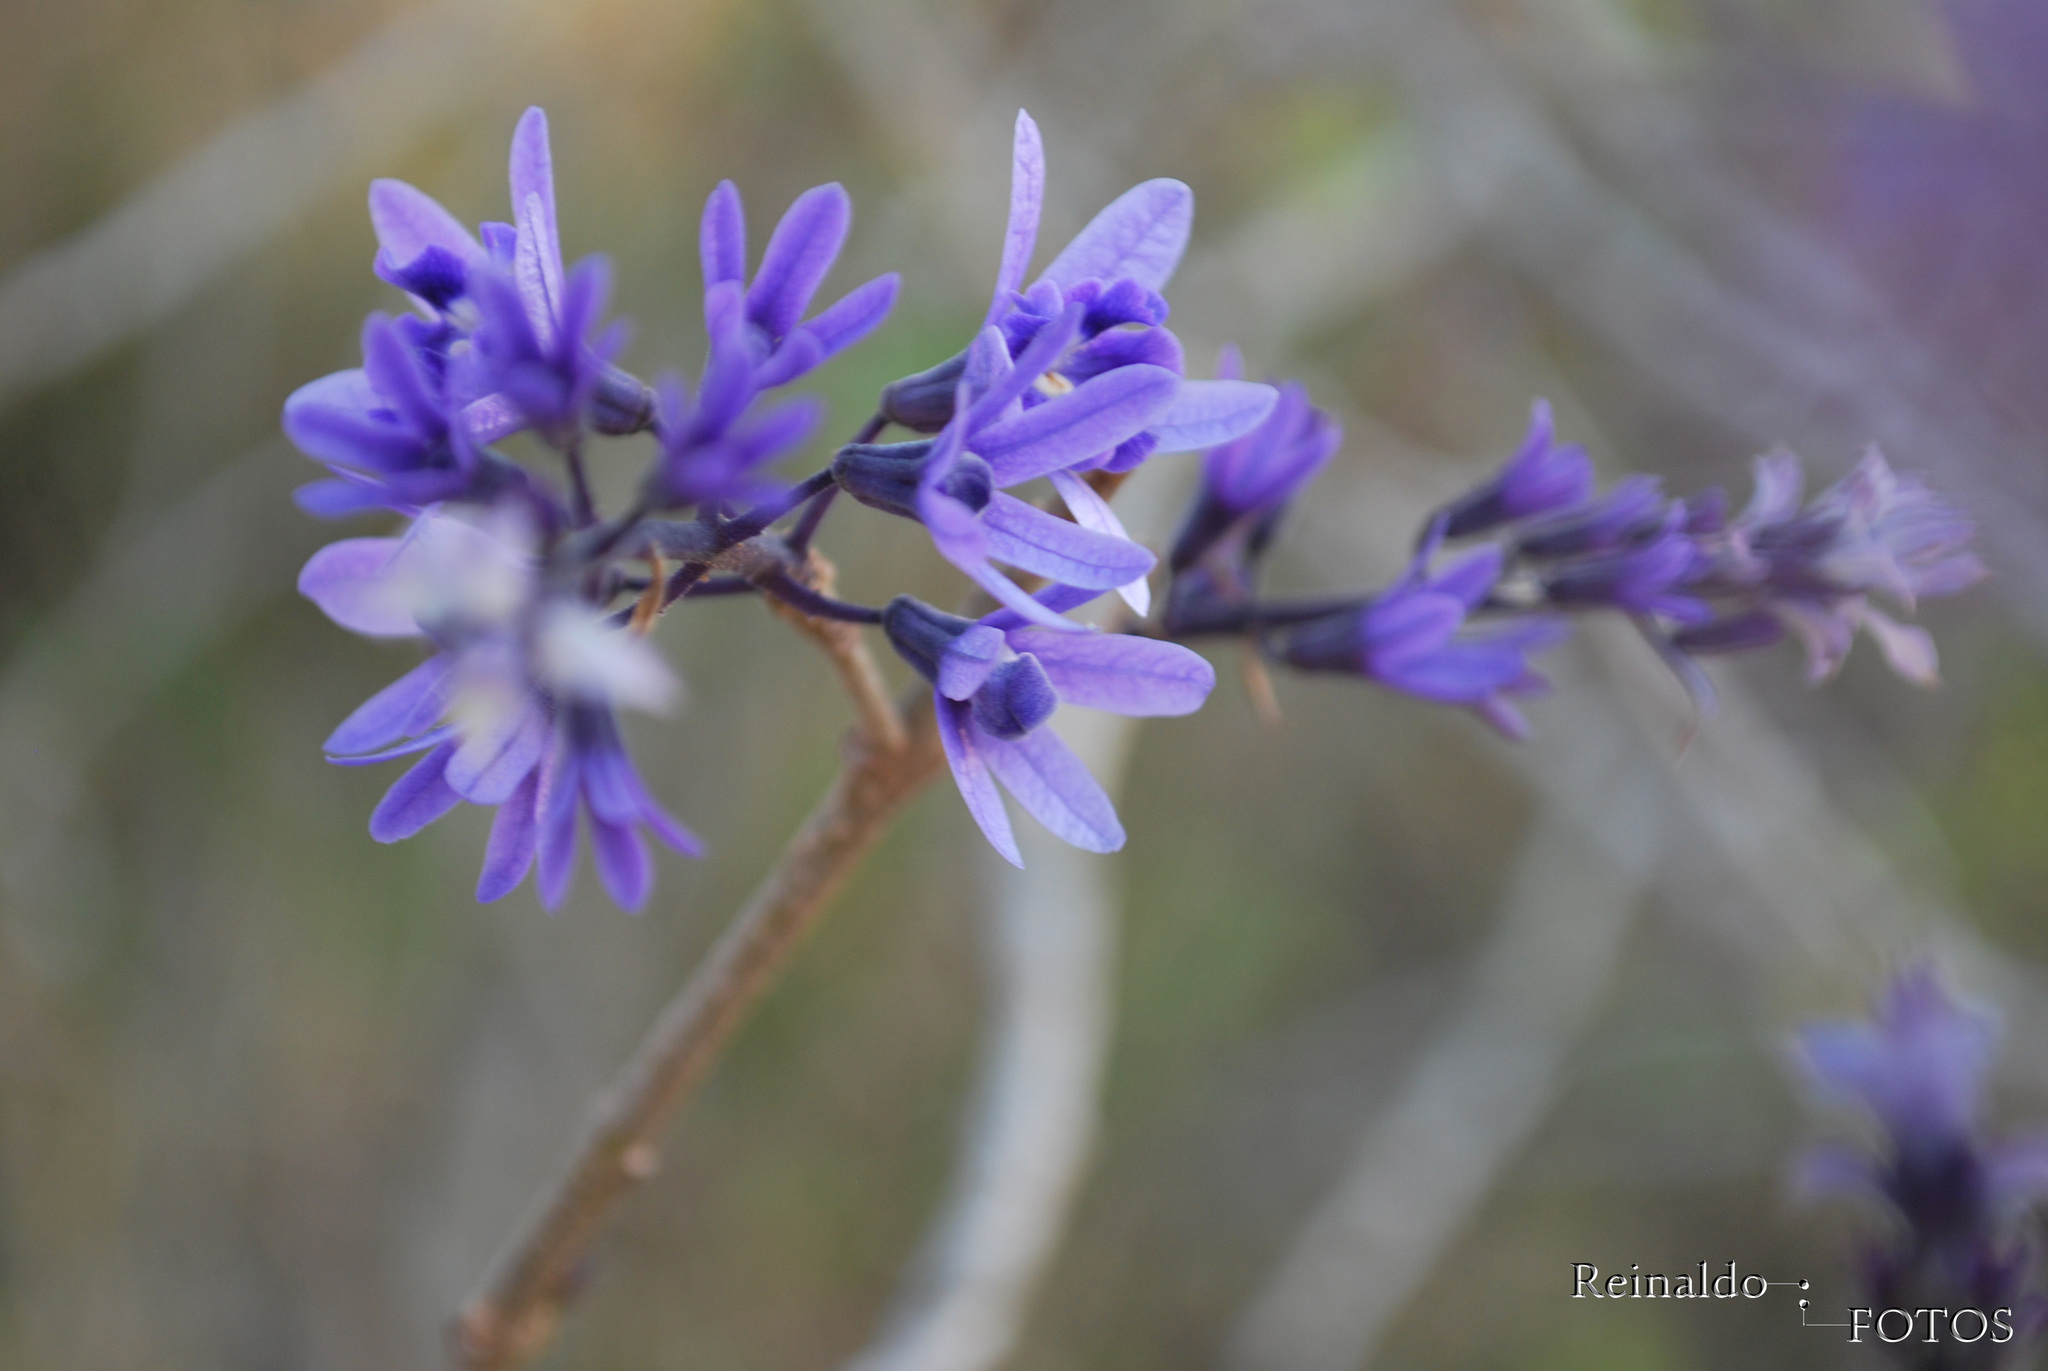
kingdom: Plantae
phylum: Tracheophyta
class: Magnoliopsida
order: Lamiales
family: Verbenaceae
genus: Petrea
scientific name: Petrea volubilis
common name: Queen's-wreath
